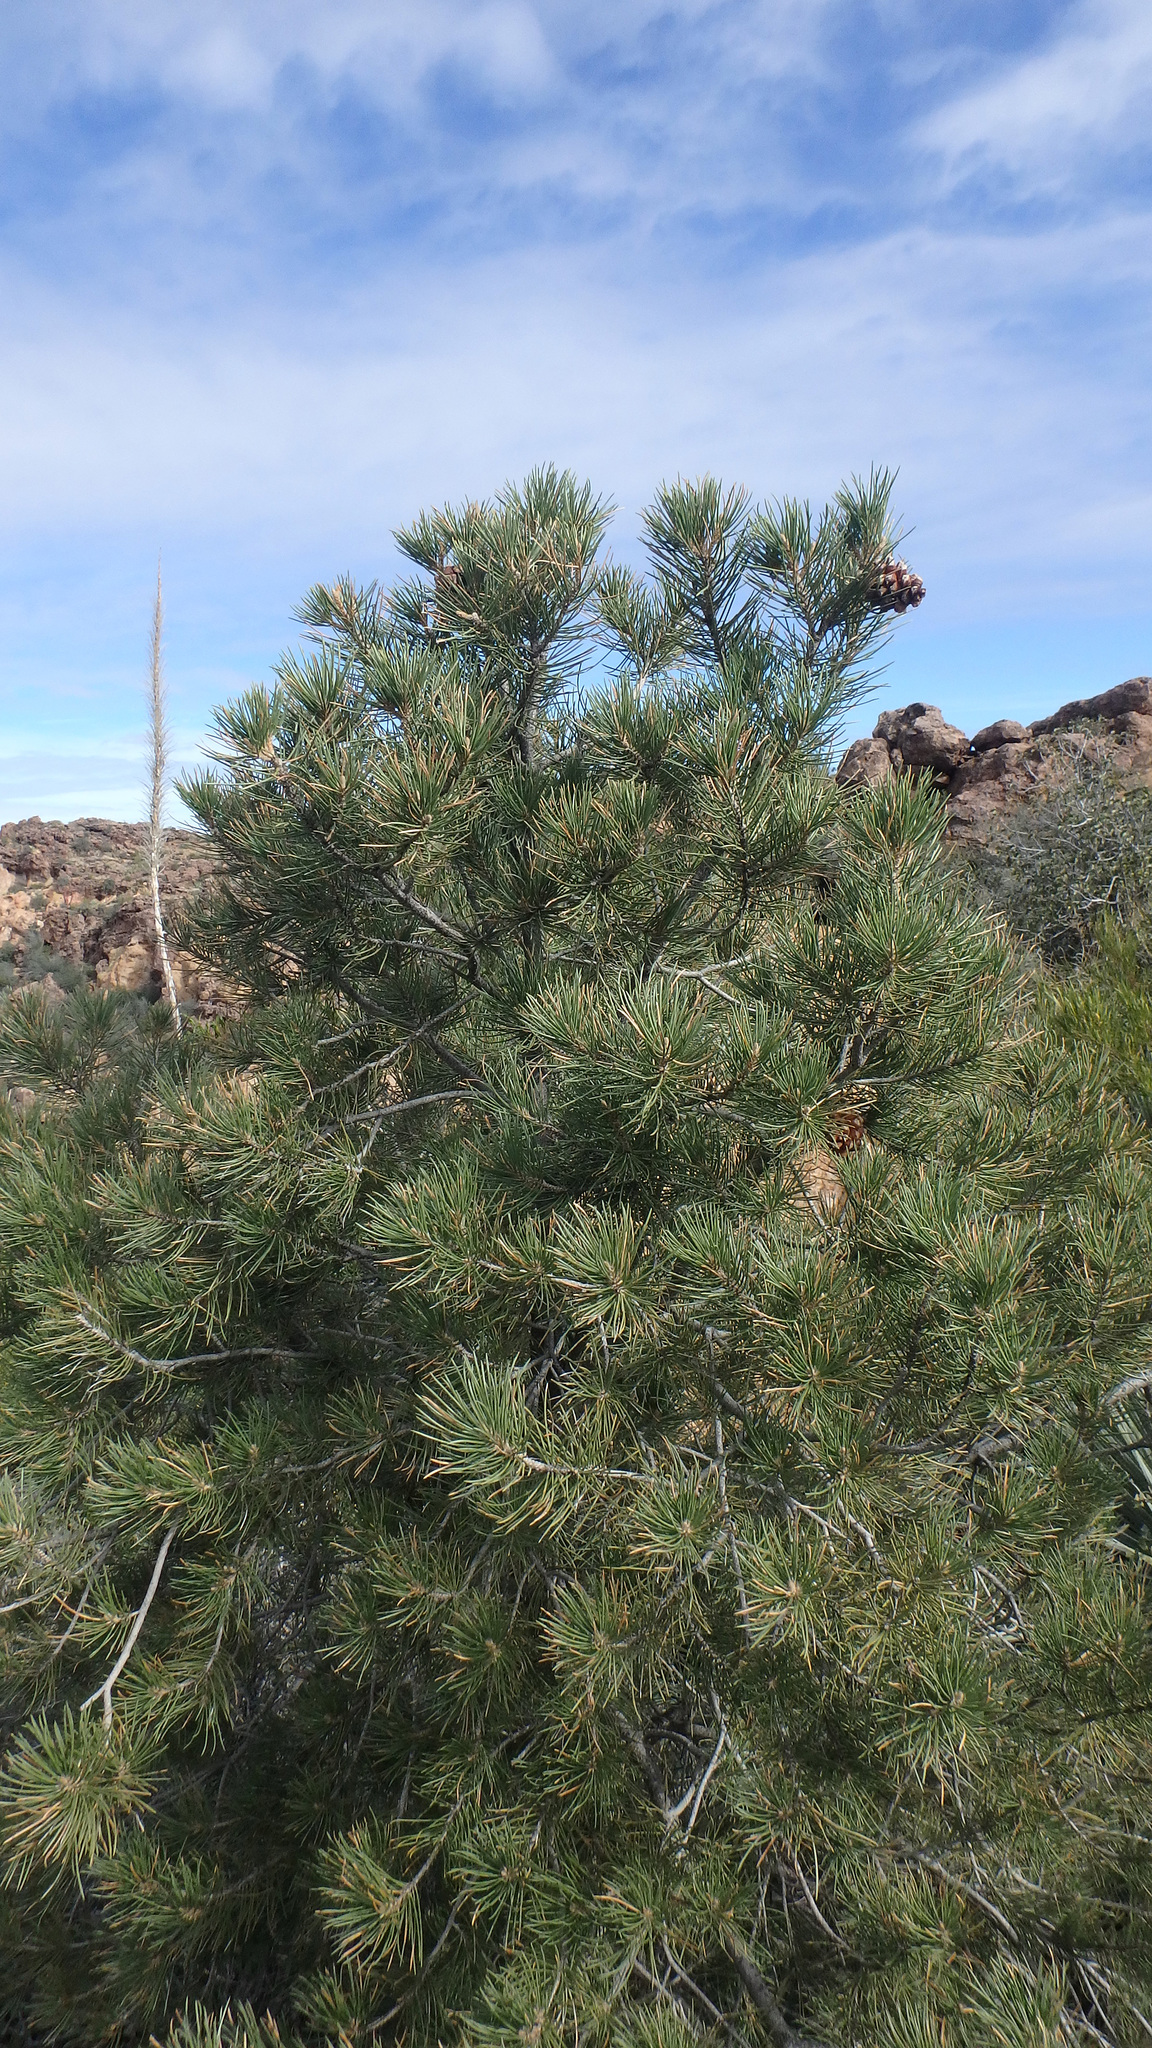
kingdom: Plantae
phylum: Tracheophyta
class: Pinopsida
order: Pinales
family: Pinaceae
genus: Pinus
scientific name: Pinus monophylla
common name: One-leaved nut pine
